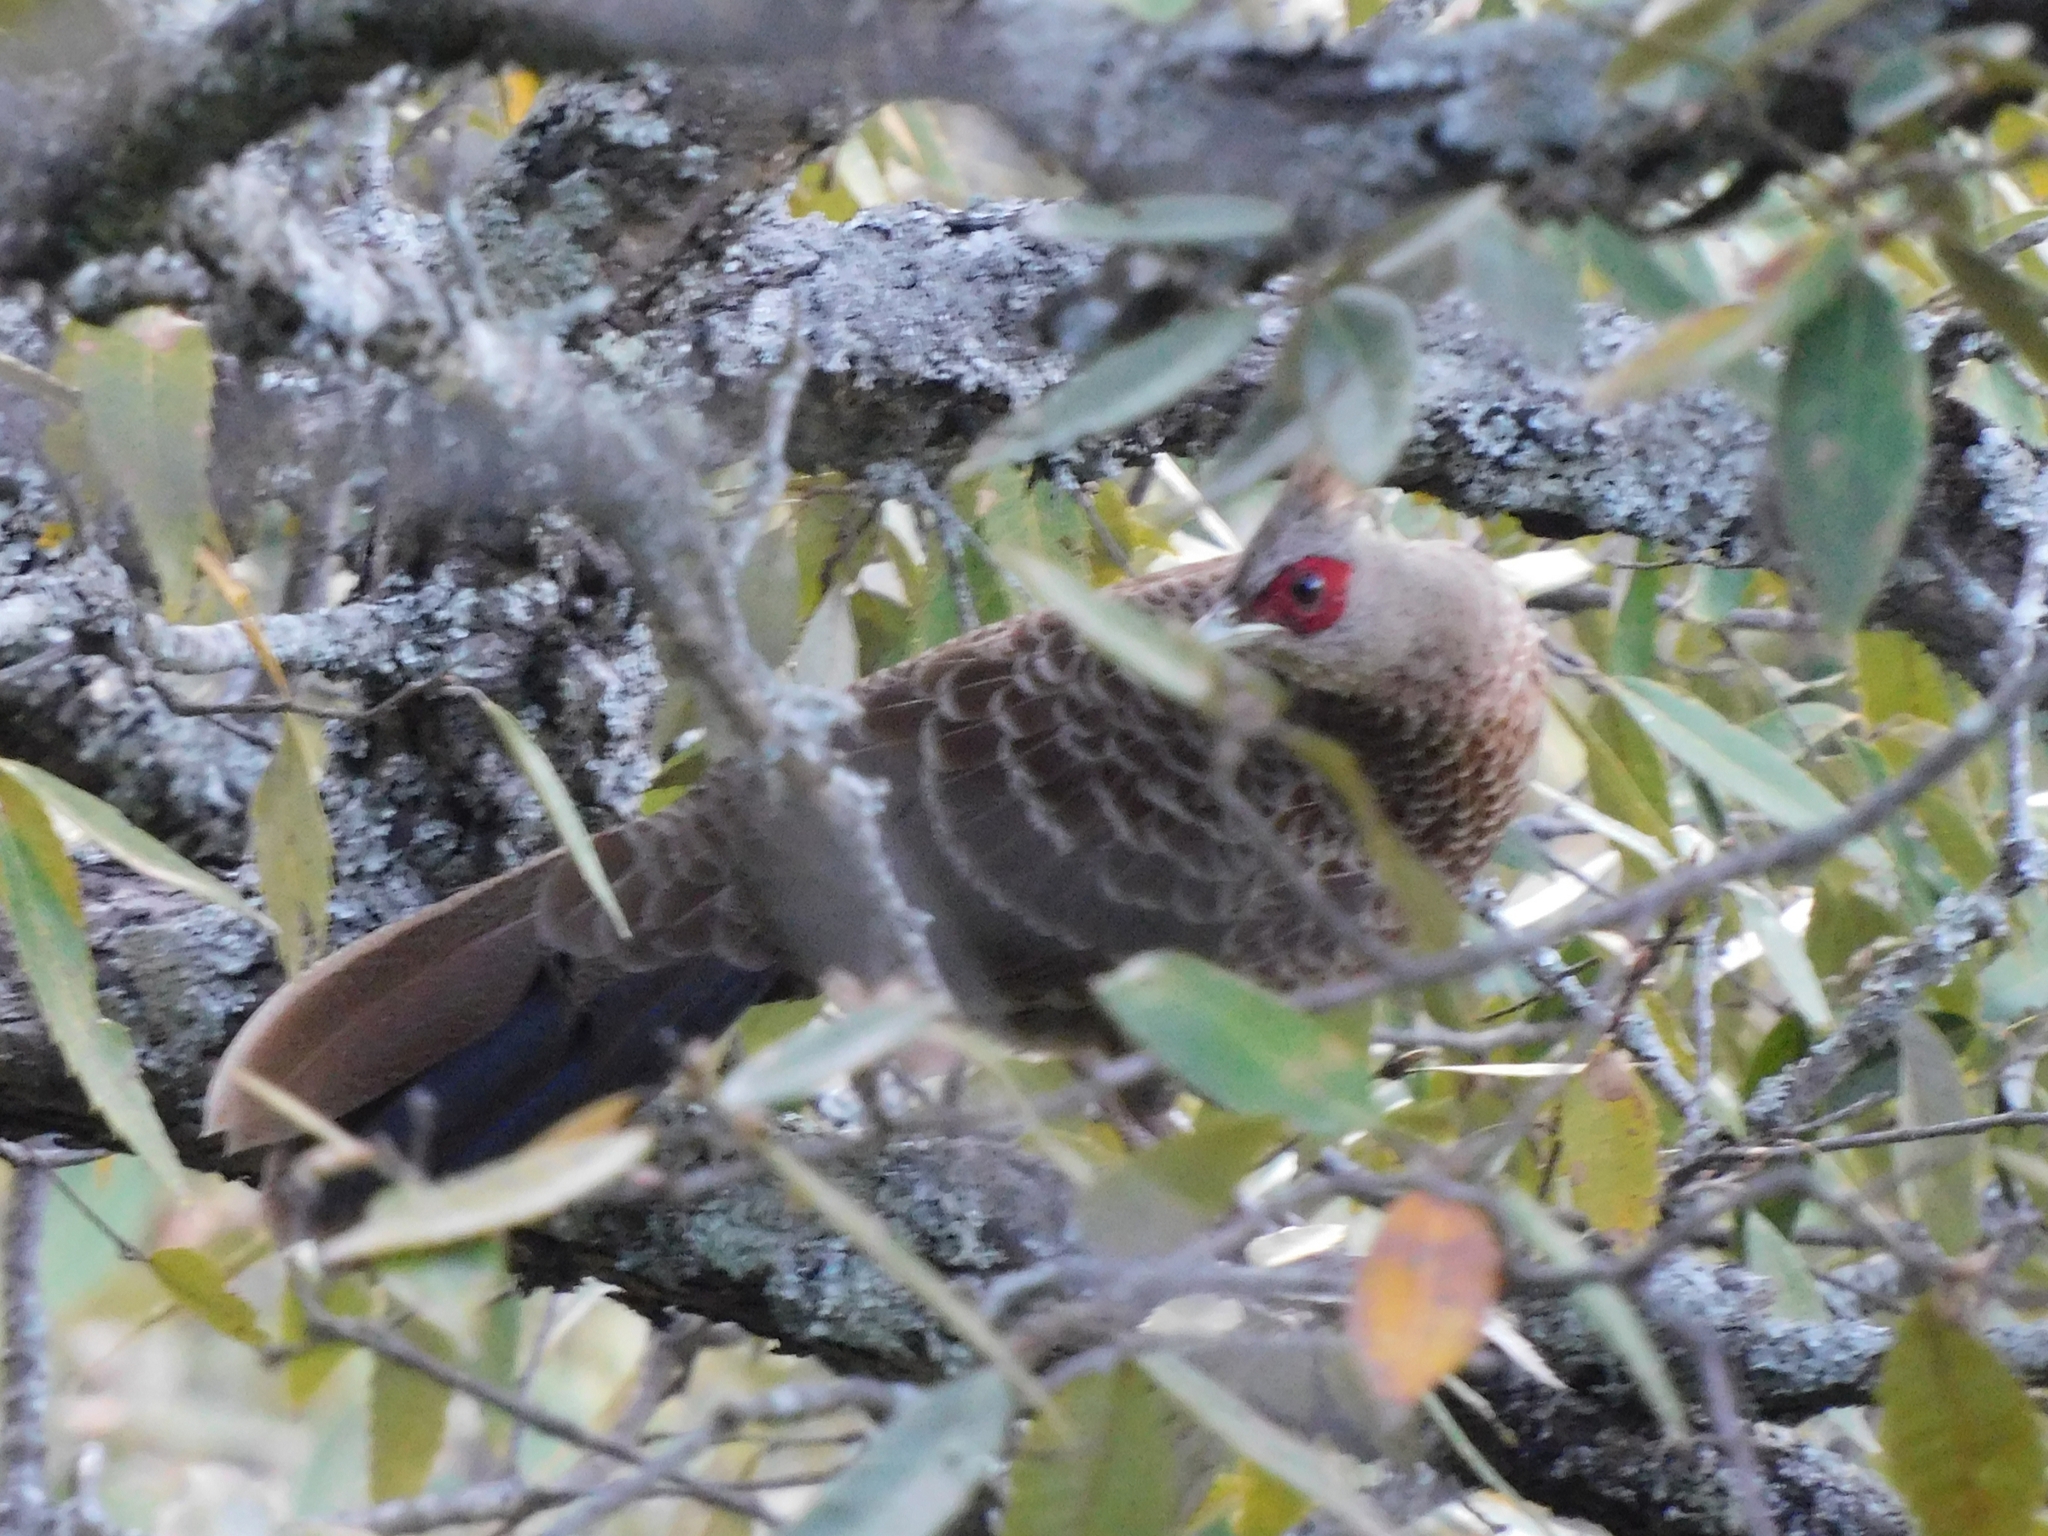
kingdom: Animalia
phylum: Chordata
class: Aves
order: Galliformes
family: Phasianidae
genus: Lophura
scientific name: Lophura leucomelanos
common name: Kalij pheasant
